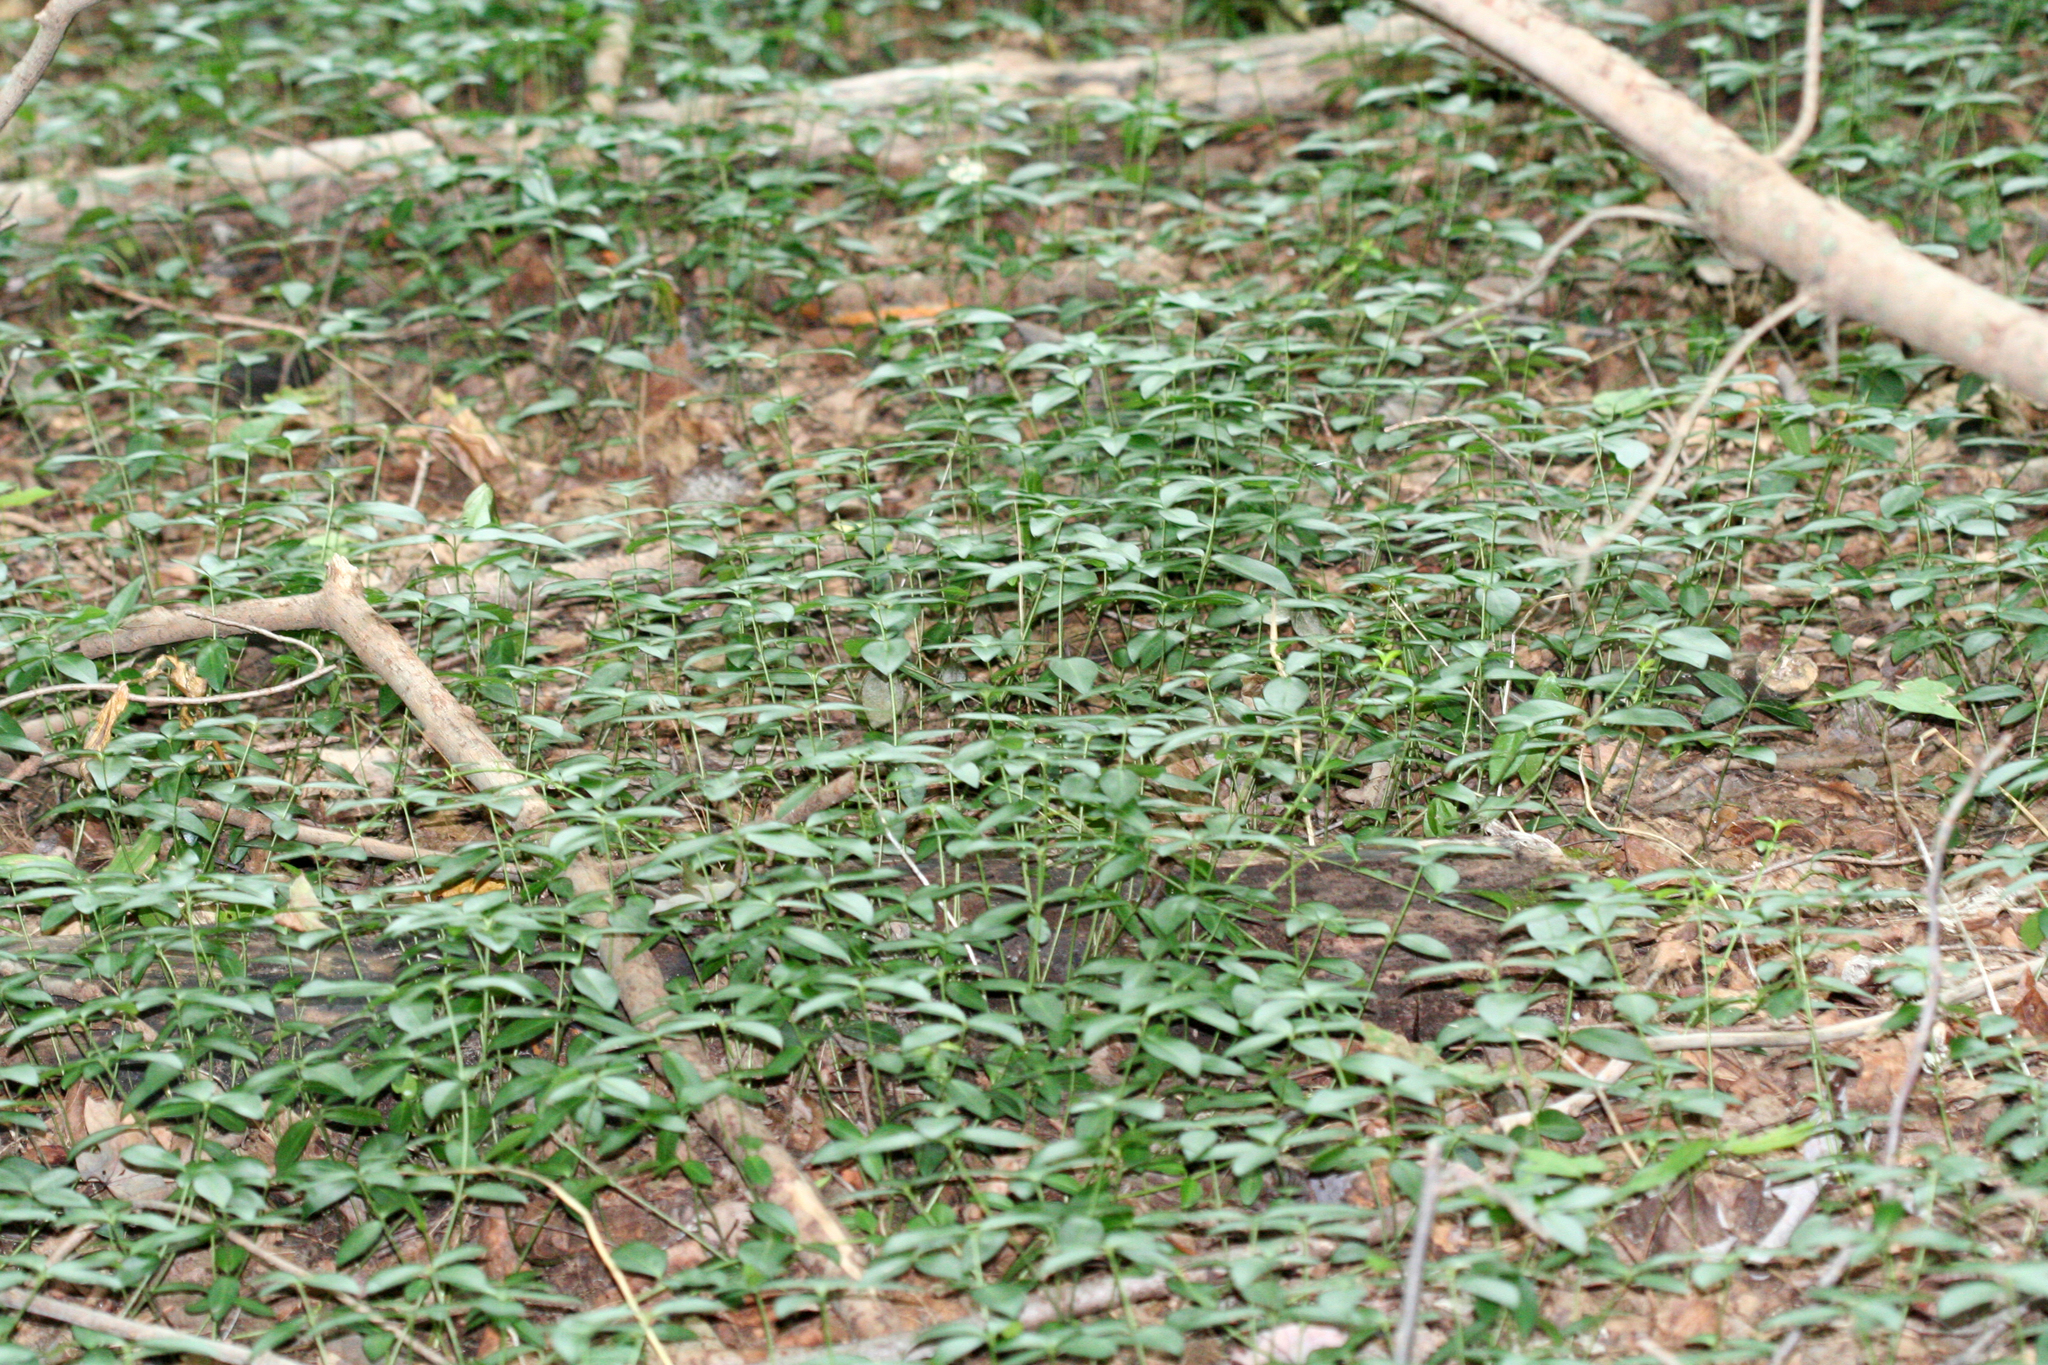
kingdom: Plantae
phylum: Tracheophyta
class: Magnoliopsida
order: Gentianales
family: Apocynaceae
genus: Vinca
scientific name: Vinca minor
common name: Lesser periwinkle
